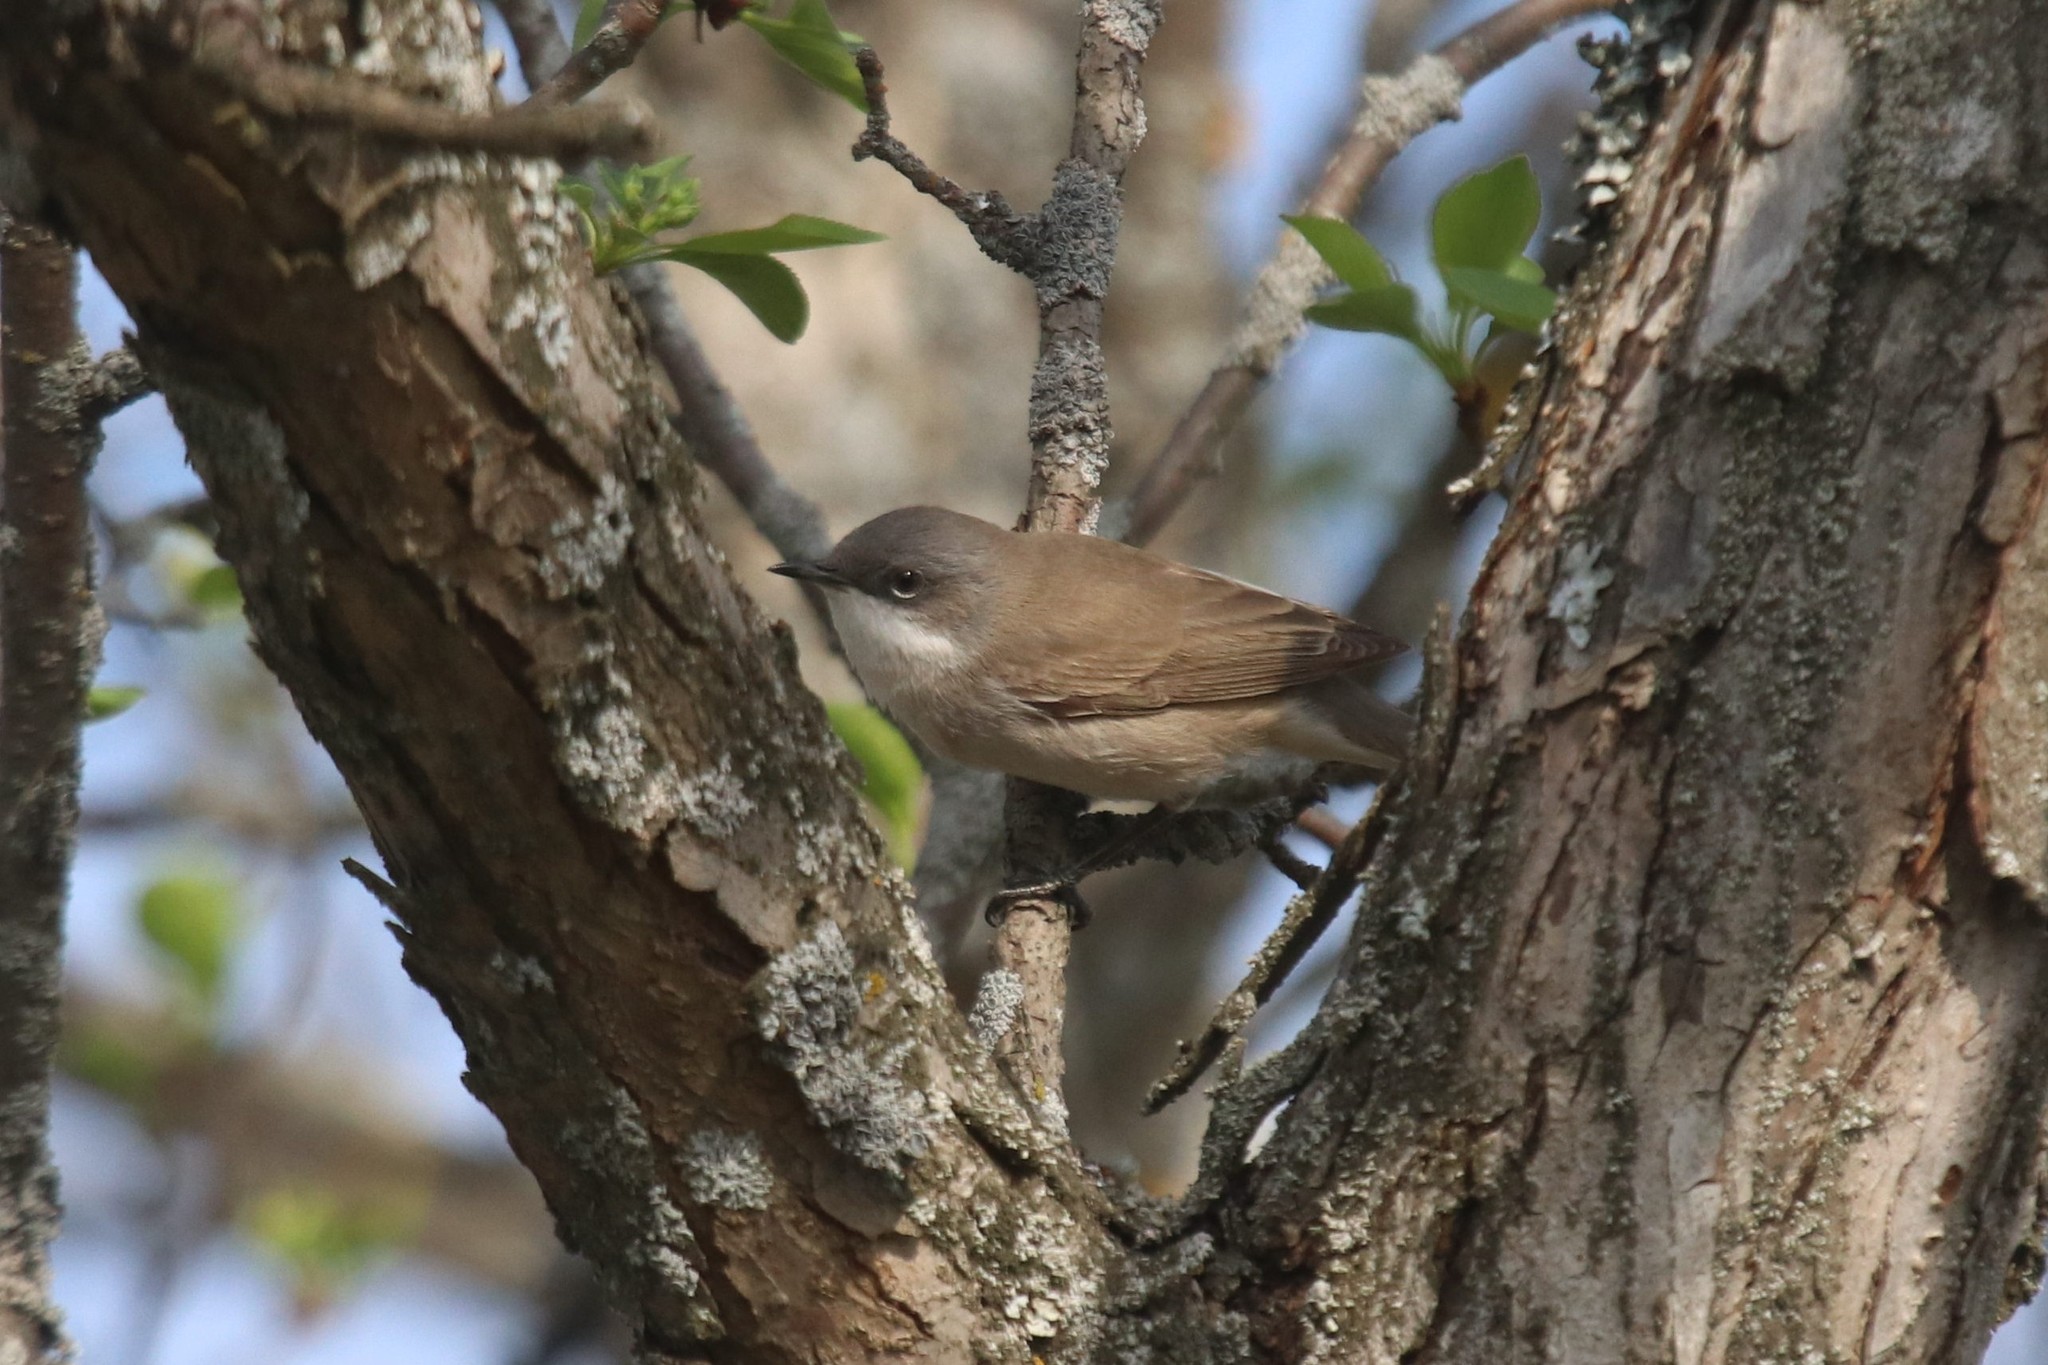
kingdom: Animalia
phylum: Chordata
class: Aves
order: Passeriformes
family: Sylviidae
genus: Sylvia
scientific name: Sylvia curruca
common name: Lesser whitethroat
